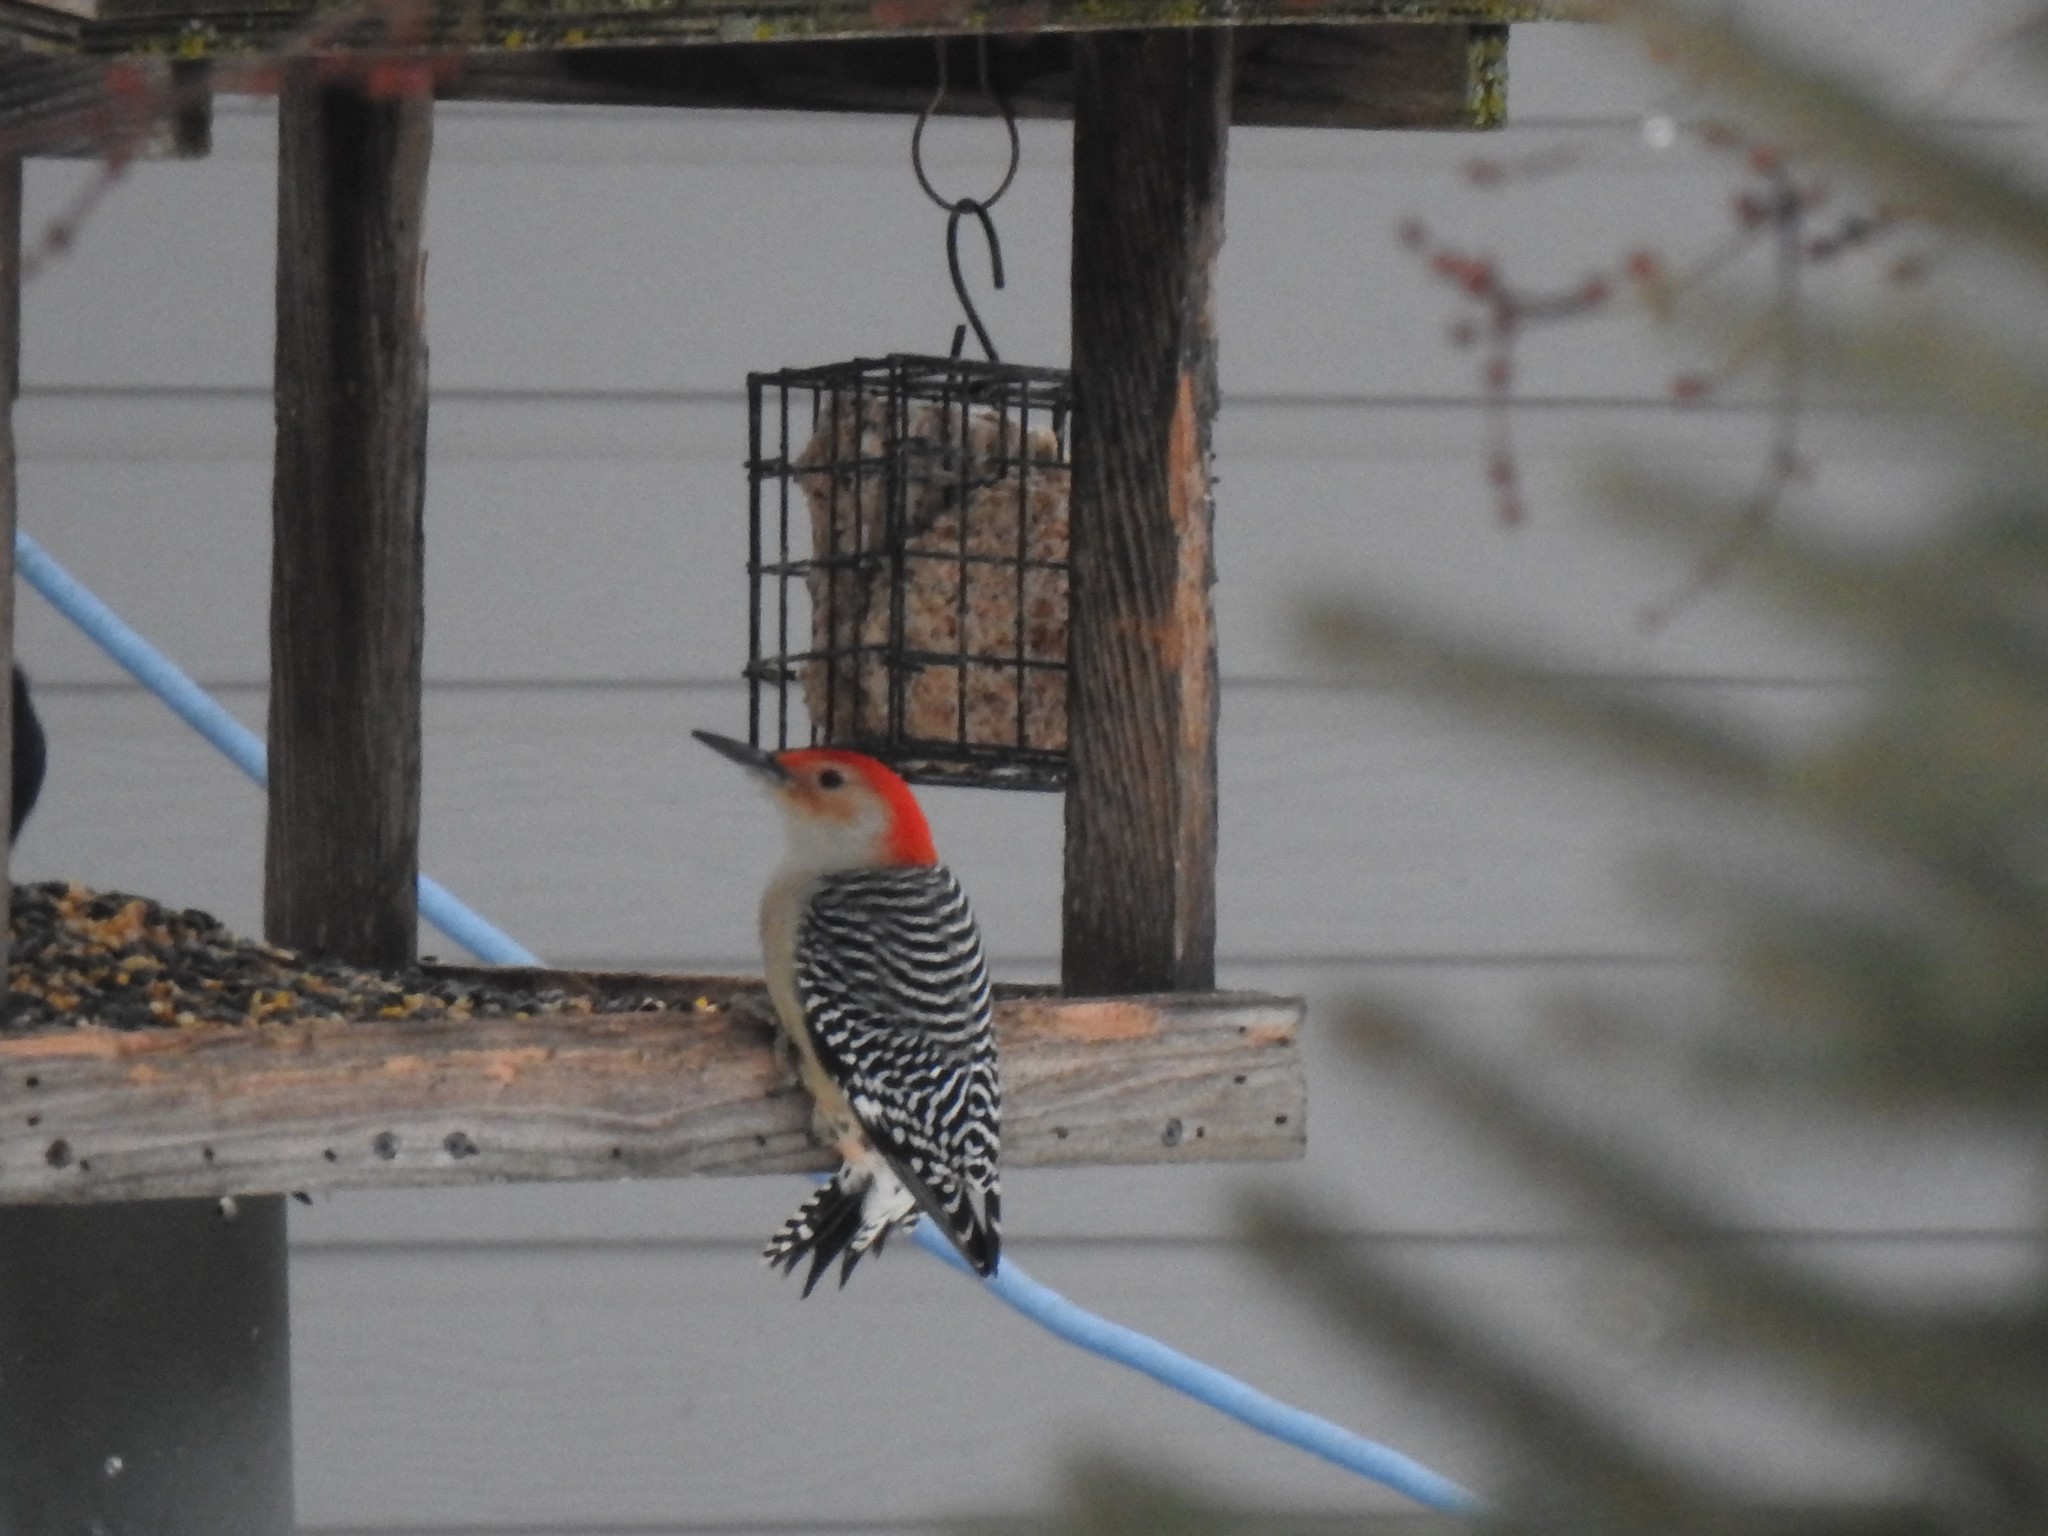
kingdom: Animalia
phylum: Chordata
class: Aves
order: Piciformes
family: Picidae
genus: Melanerpes
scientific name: Melanerpes carolinus
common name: Red-bellied woodpecker
